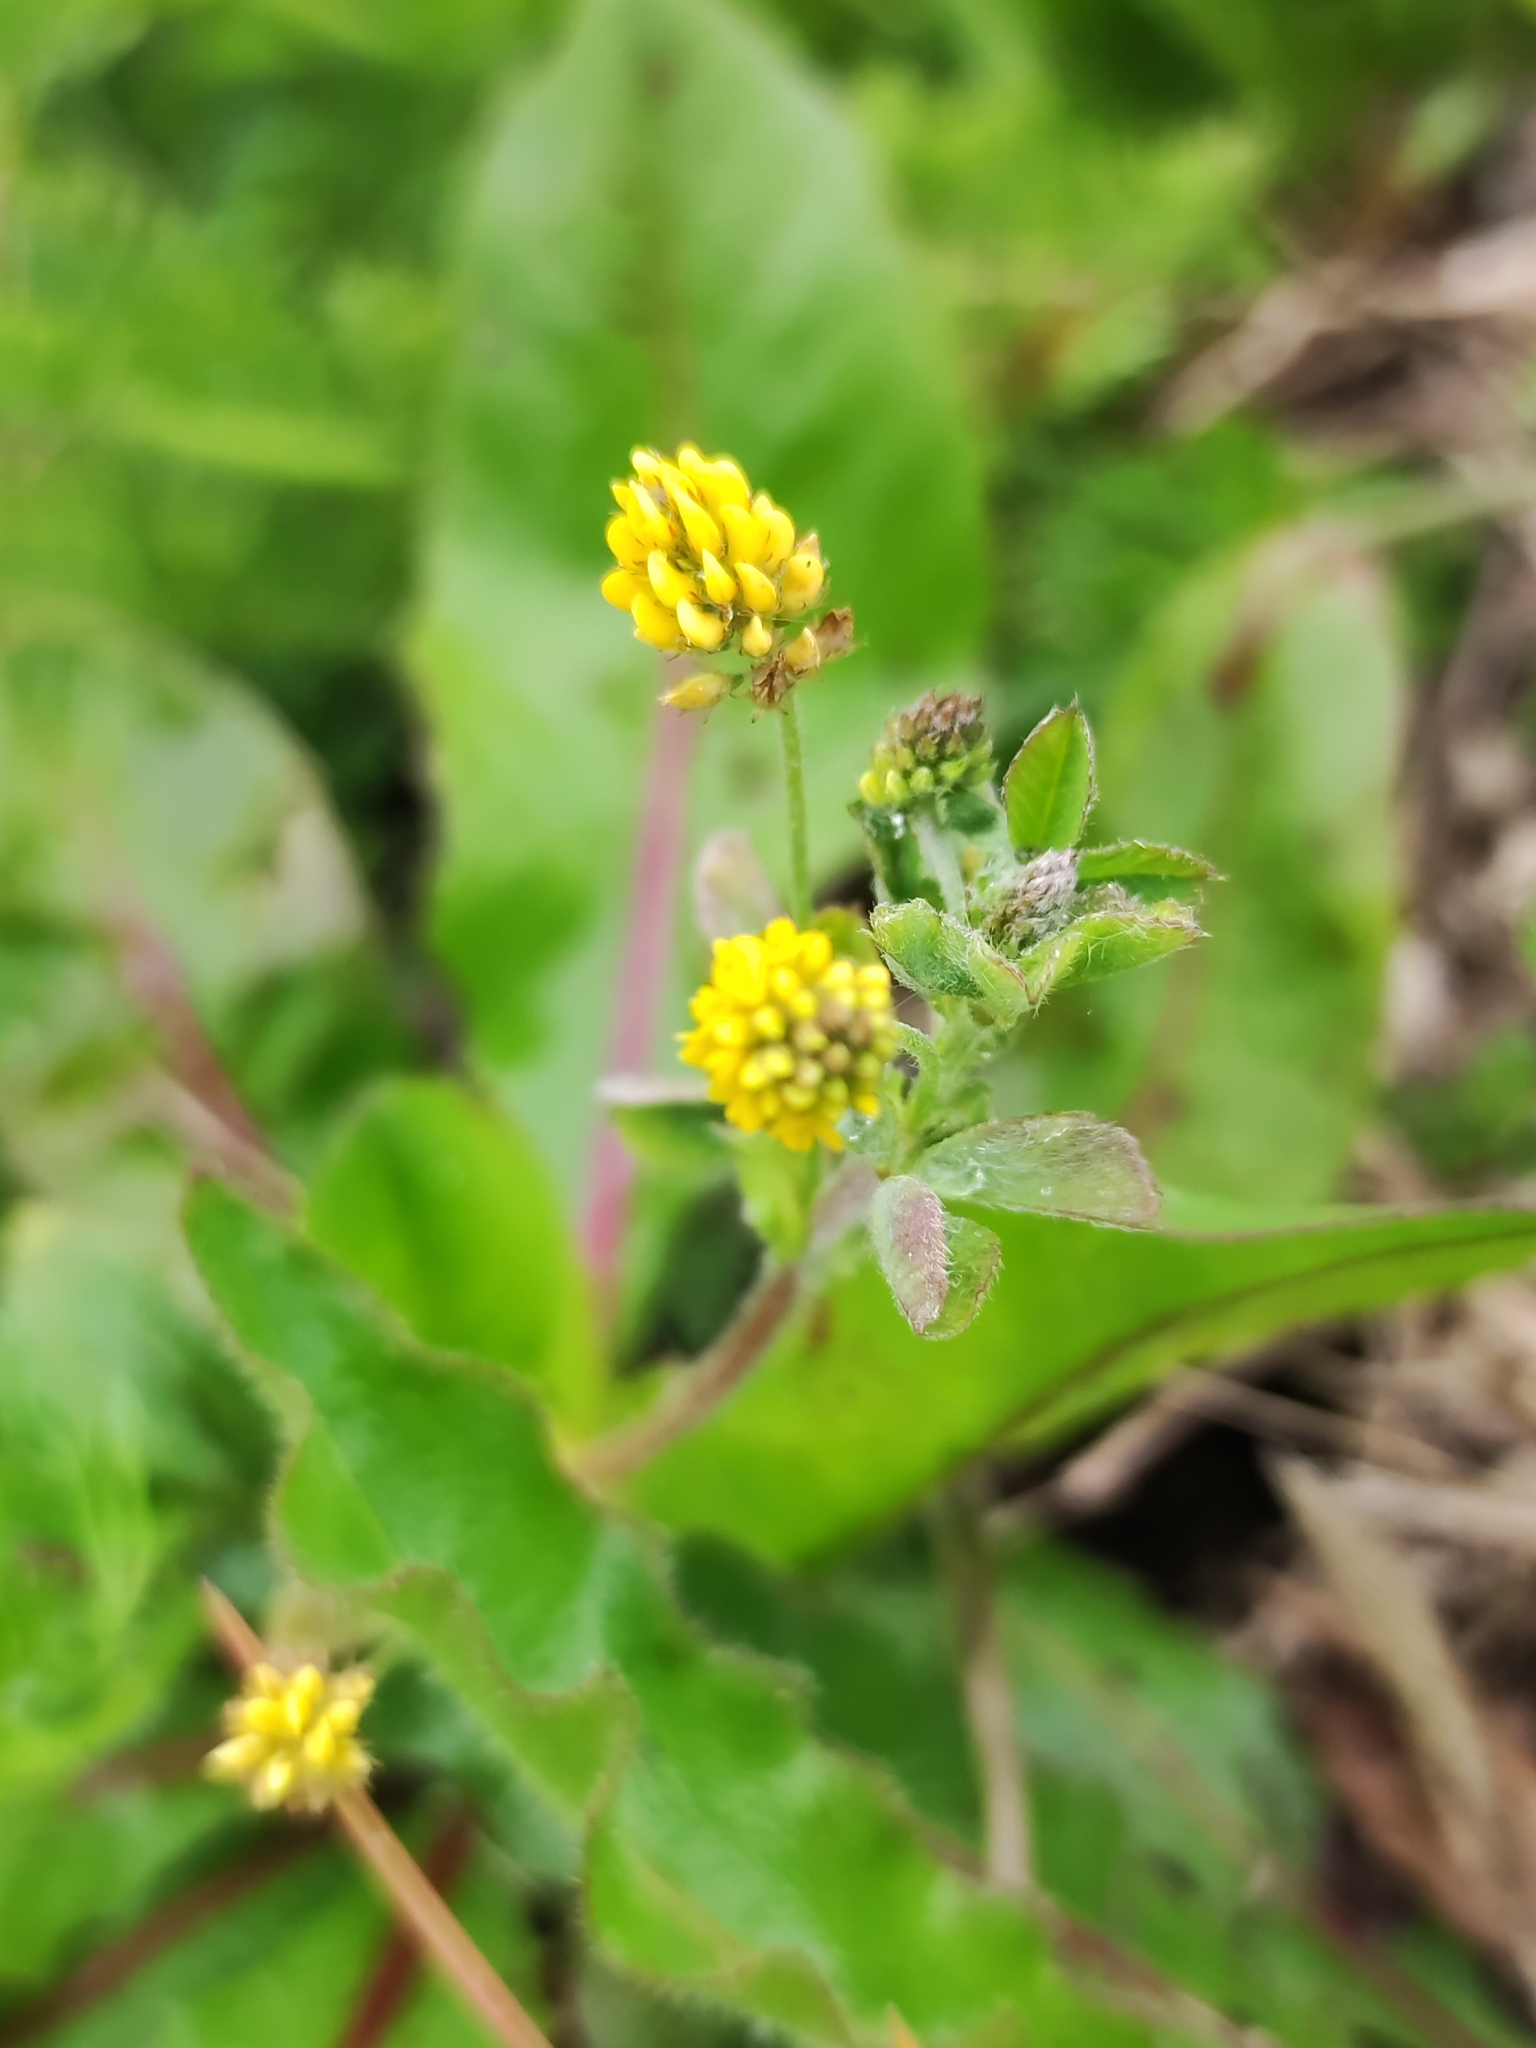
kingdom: Plantae
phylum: Tracheophyta
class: Magnoliopsida
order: Fabales
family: Fabaceae
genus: Medicago
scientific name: Medicago lupulina
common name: Black medick
